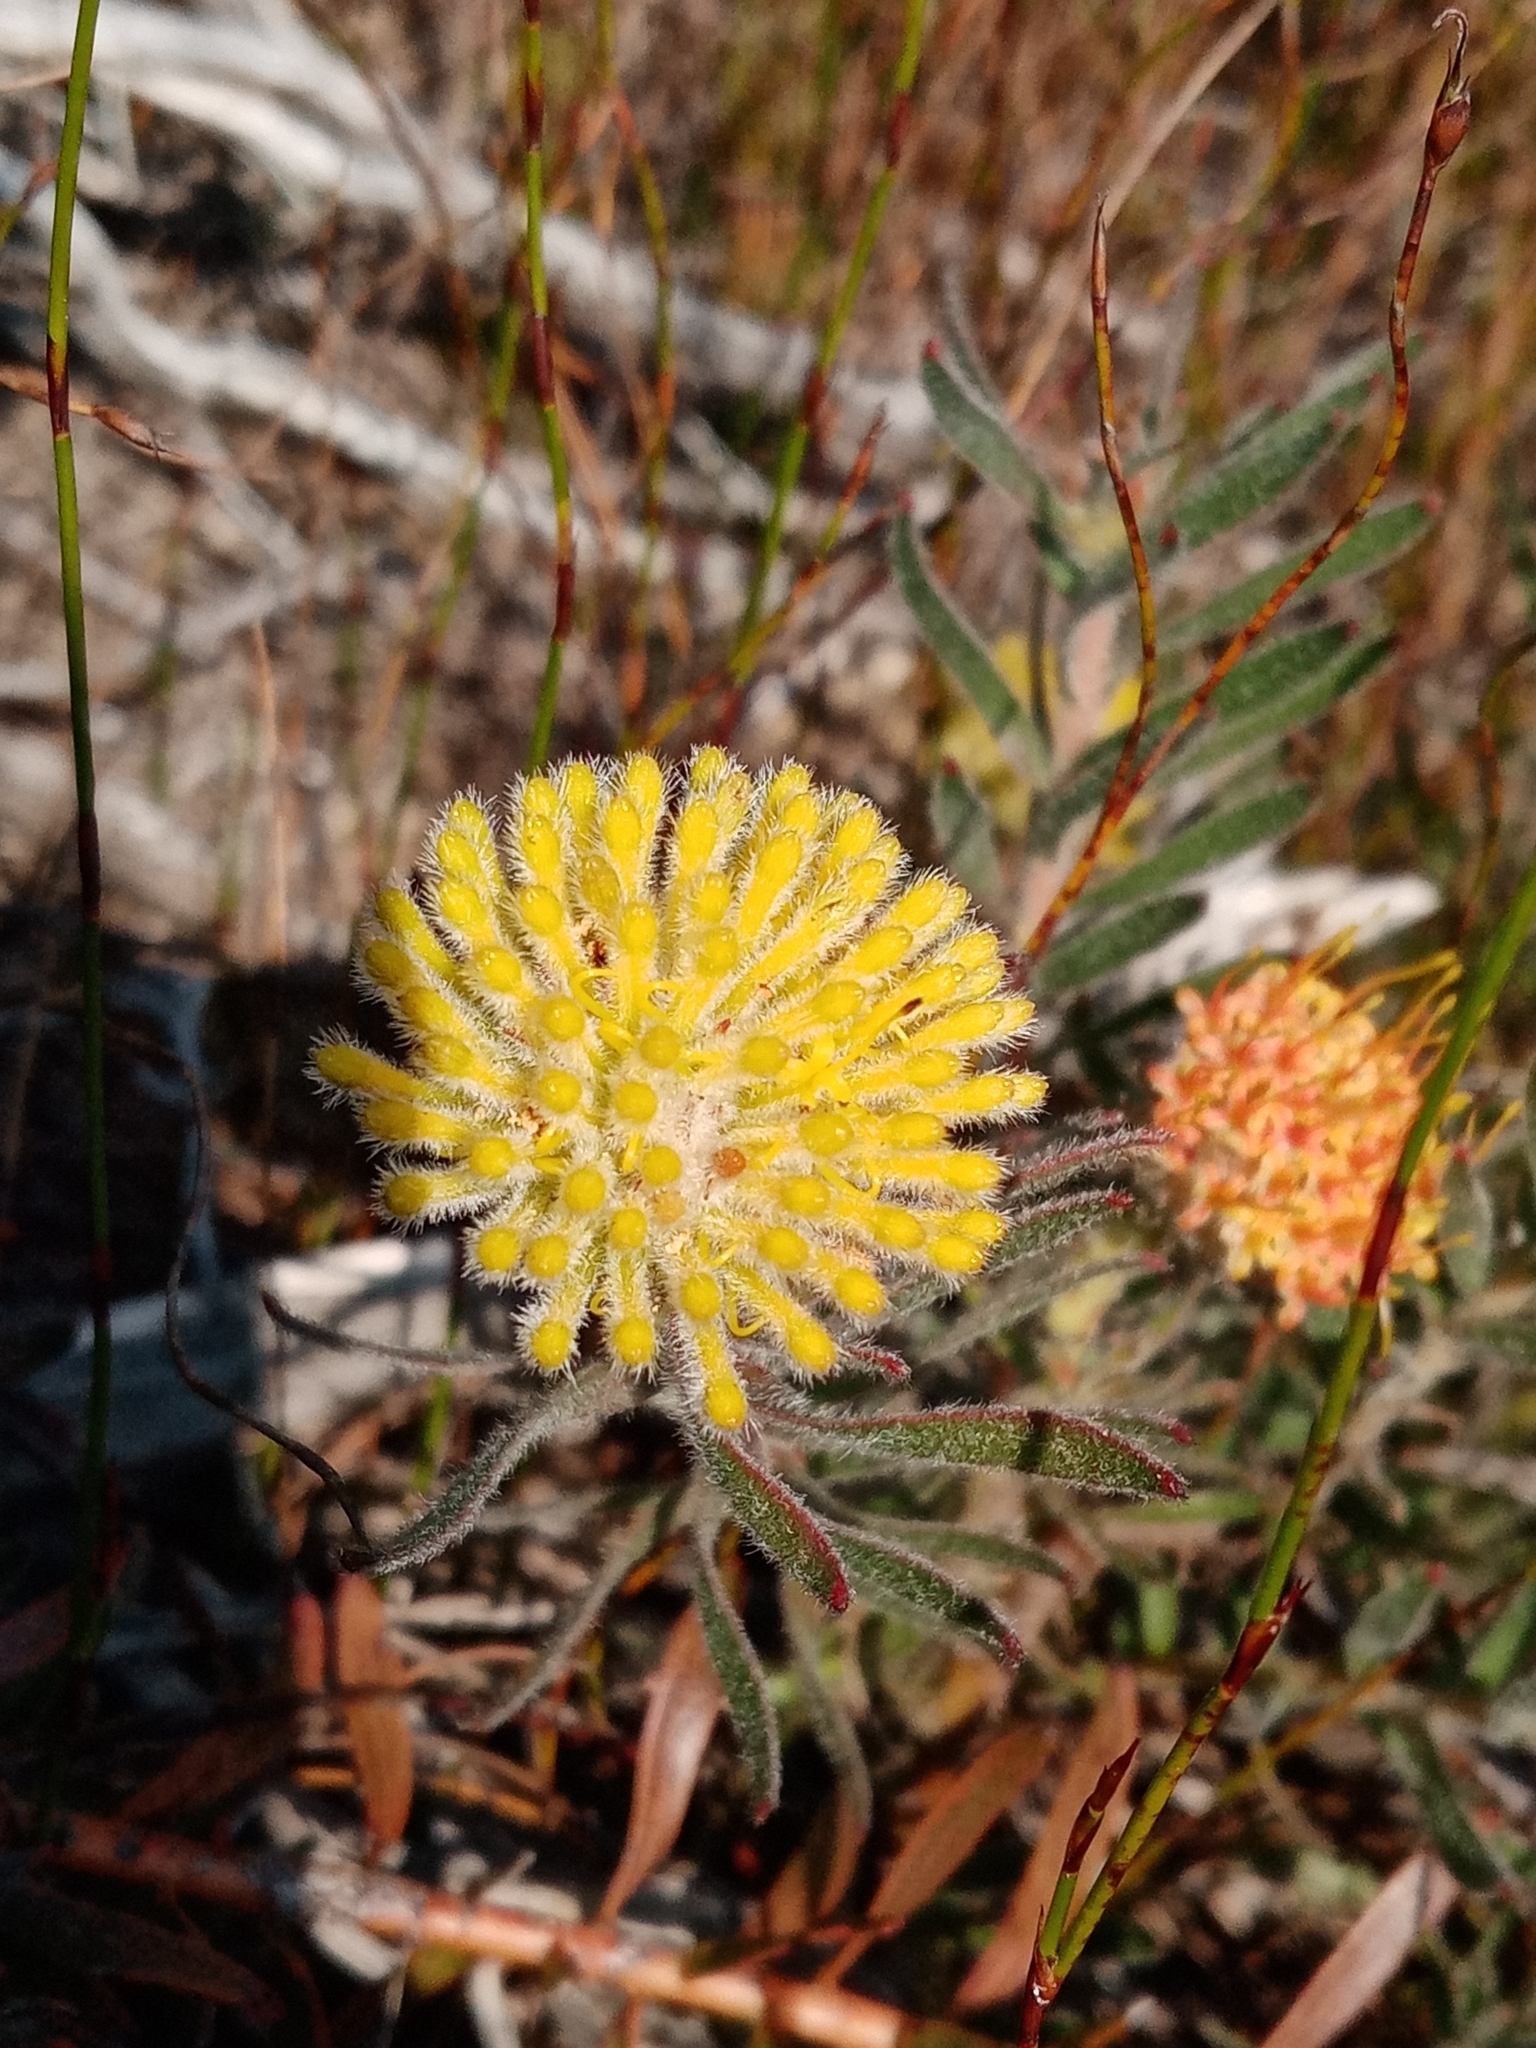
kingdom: Plantae
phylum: Tracheophyta
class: Magnoliopsida
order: Proteales
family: Proteaceae
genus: Leucospermum
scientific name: Leucospermum prostratum
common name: Yellow-trailing pincushion
